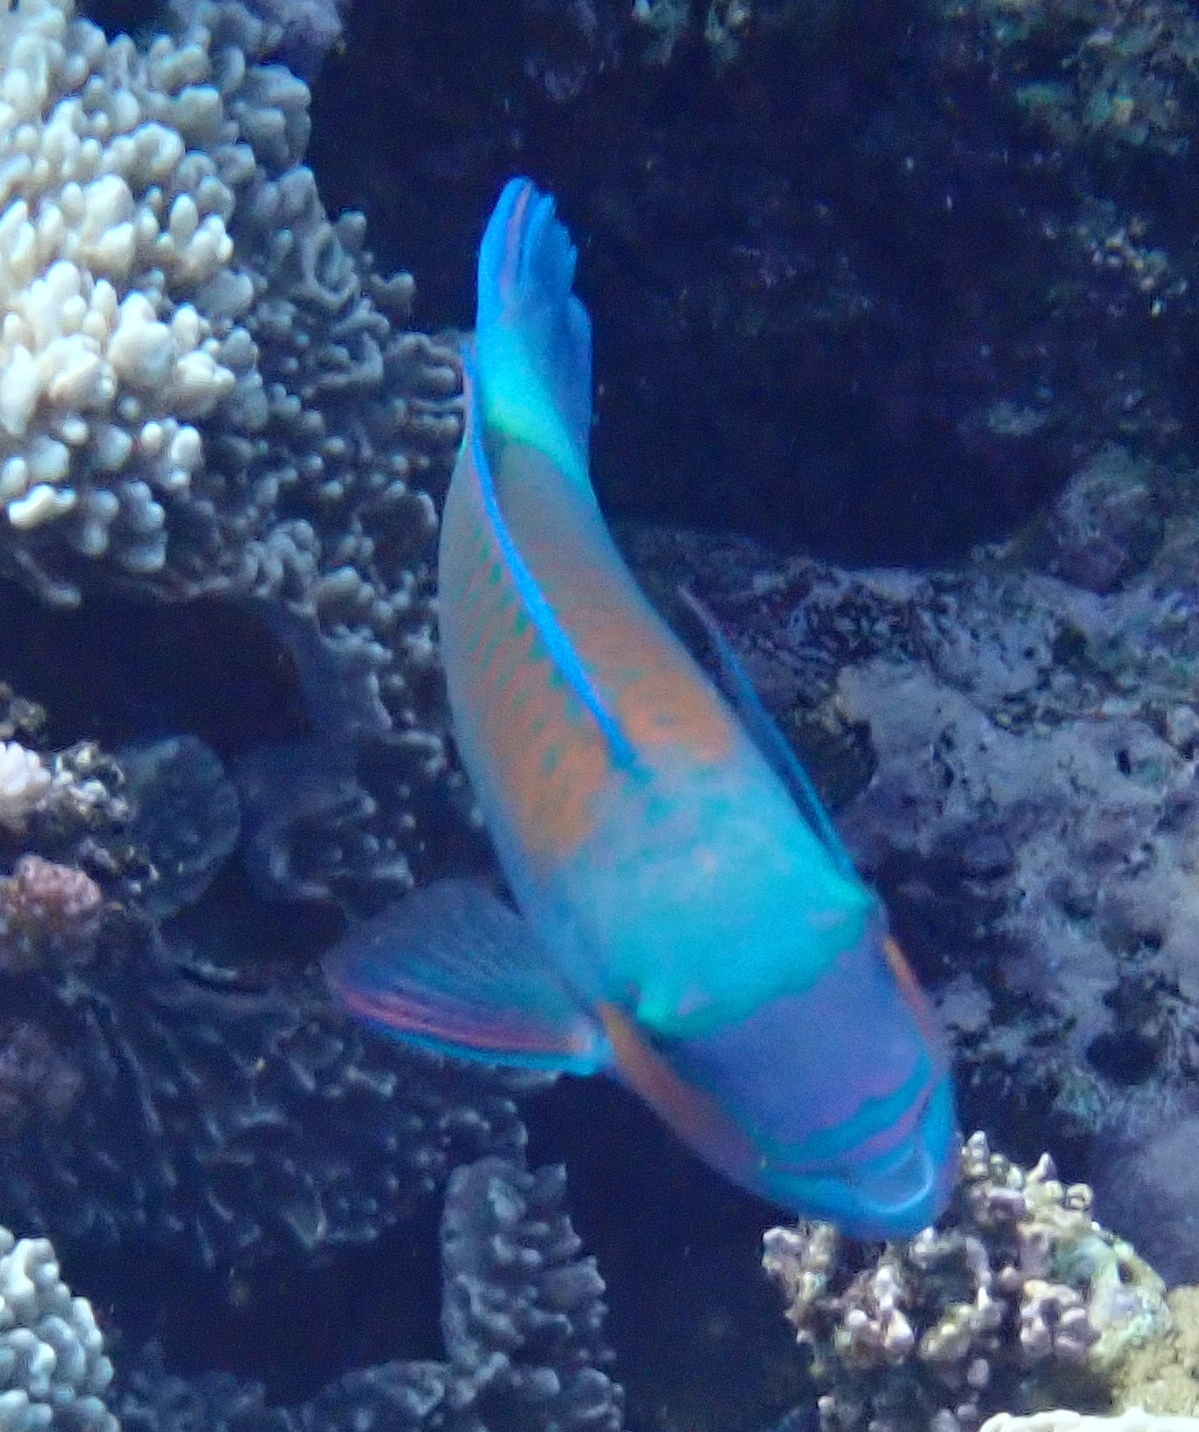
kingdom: Animalia
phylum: Chordata
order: Perciformes
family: Scaridae
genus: Chlorurus
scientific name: Chlorurus sordidus
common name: Bullethead parrotfish
